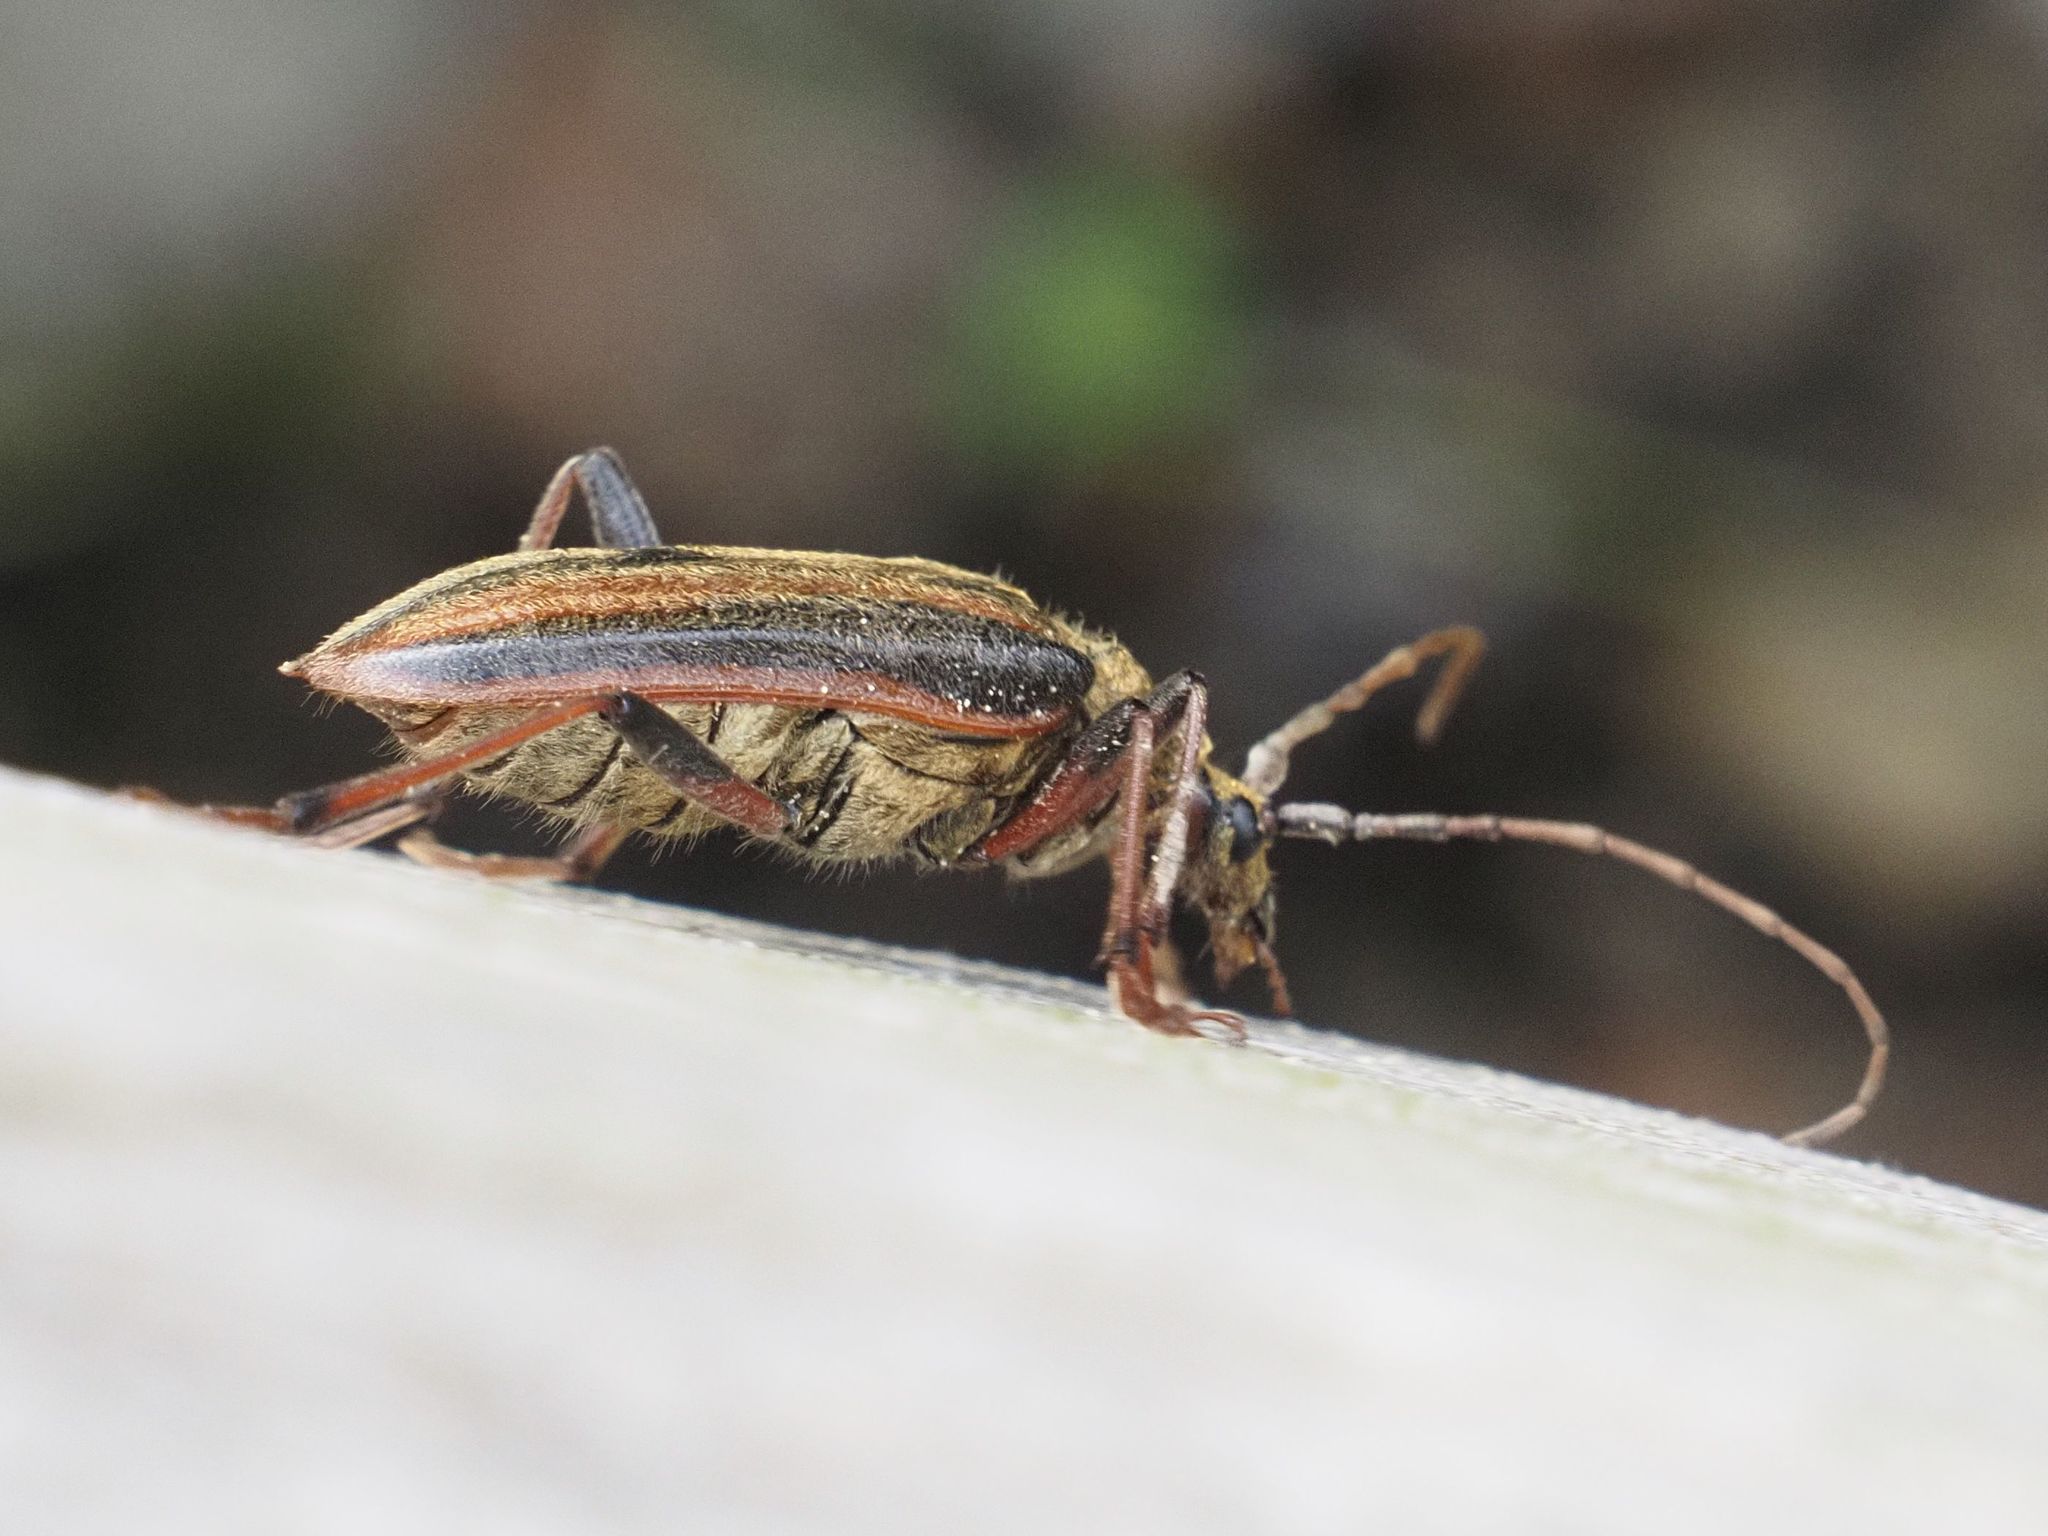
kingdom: Animalia
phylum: Arthropoda
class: Insecta
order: Coleoptera
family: Cerambycidae
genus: Oxymirus
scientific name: Oxymirus cursor
